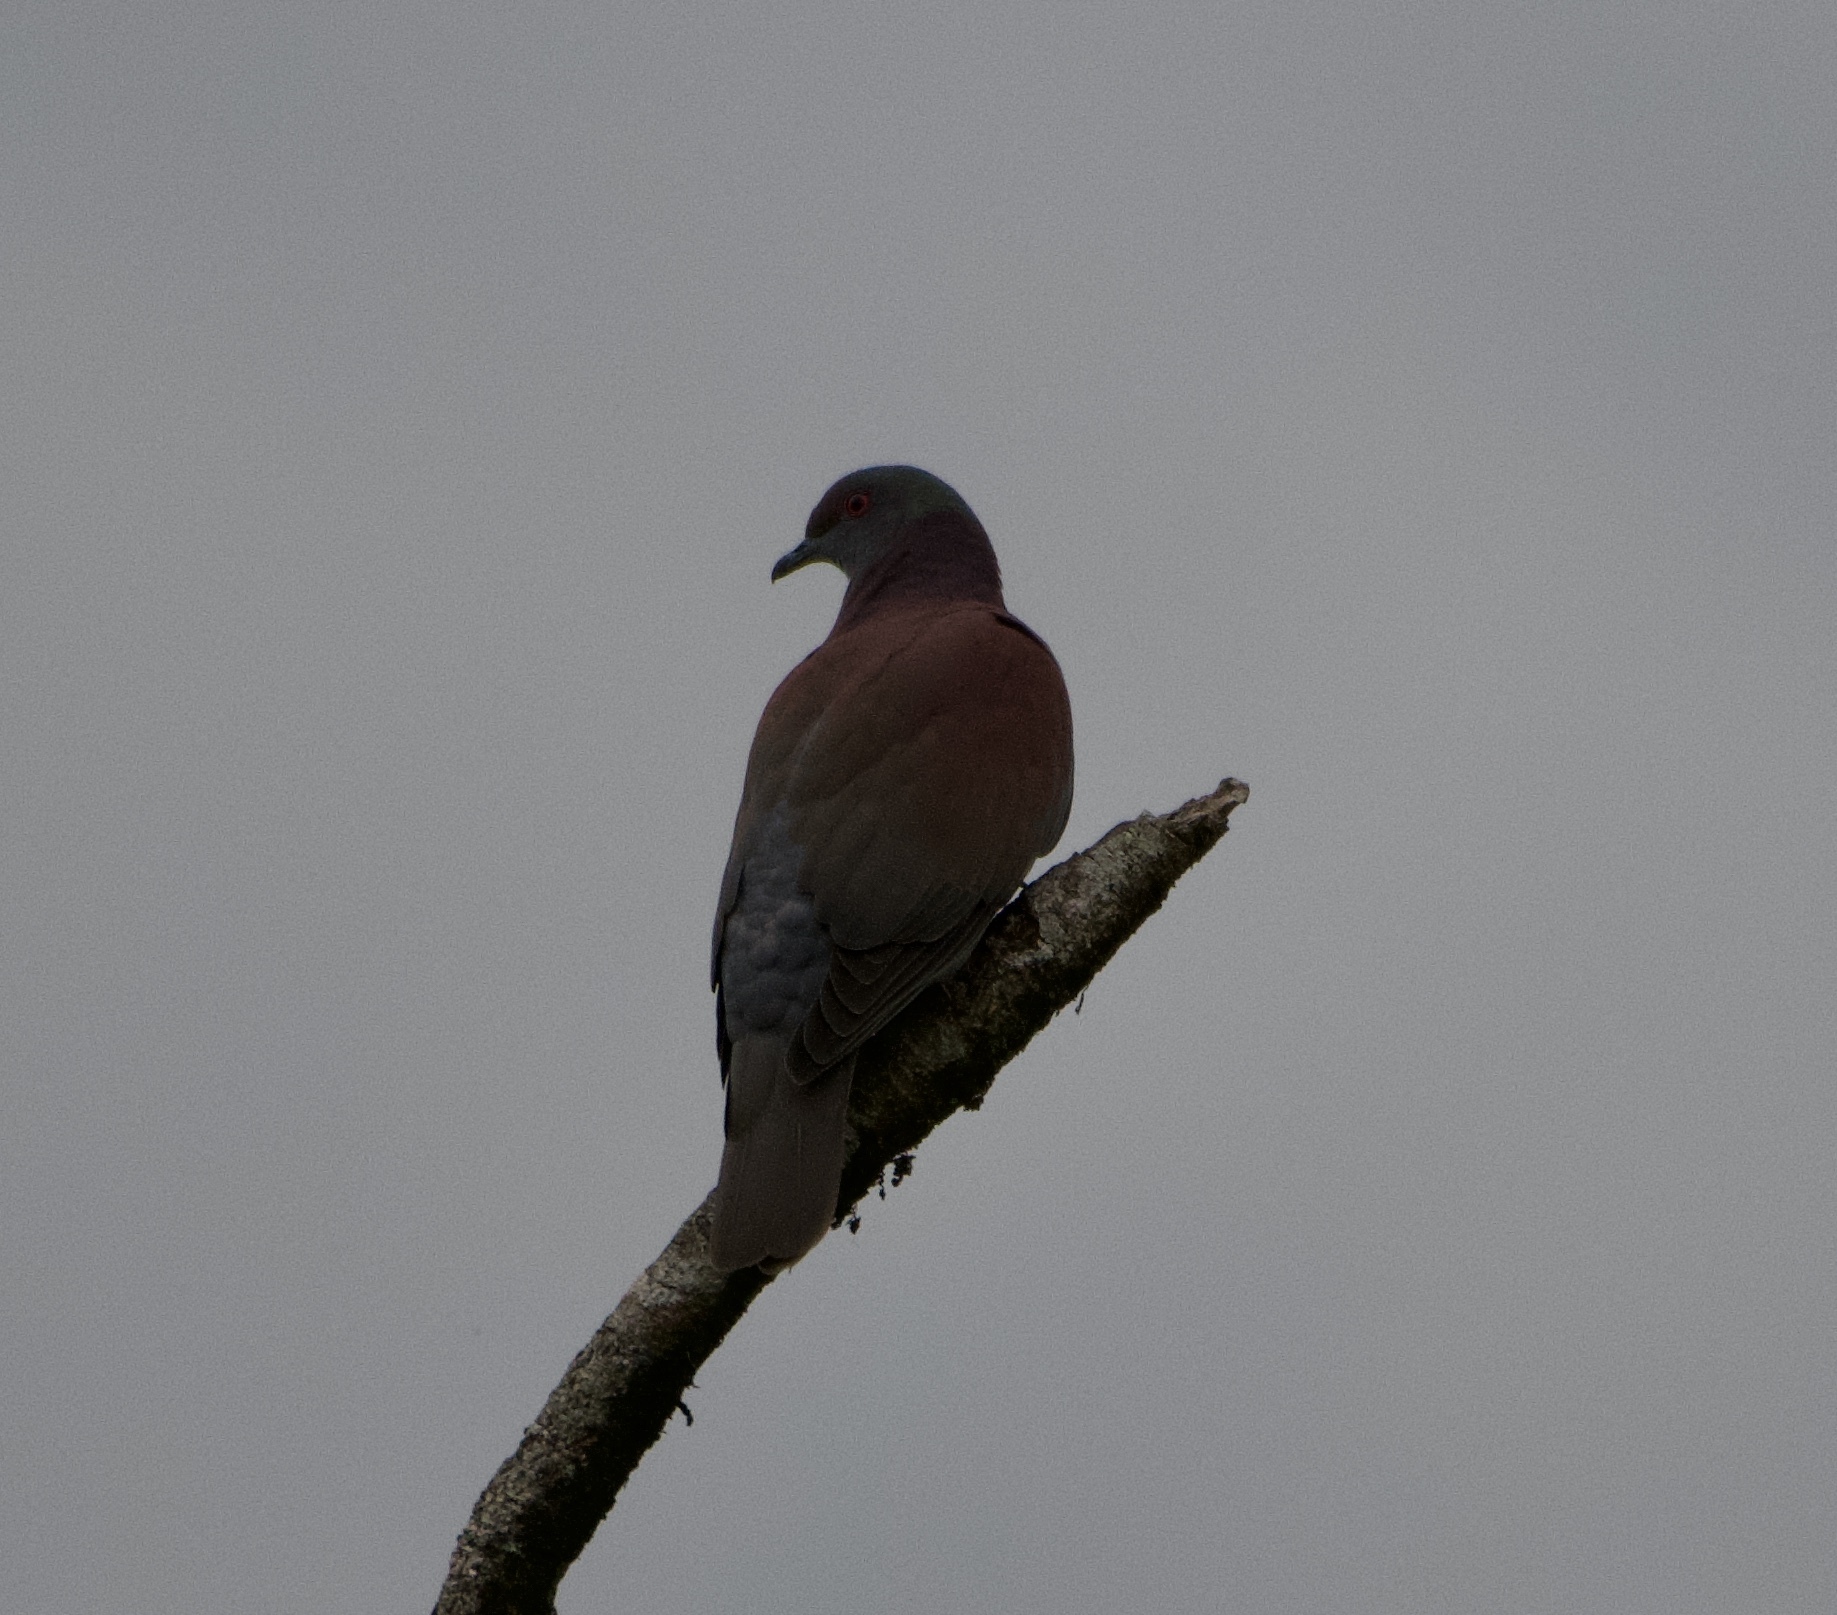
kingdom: Animalia
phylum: Chordata
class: Aves
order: Columbiformes
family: Columbidae
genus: Patagioenas
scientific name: Patagioenas cayennensis
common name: Pale-vented pigeon
